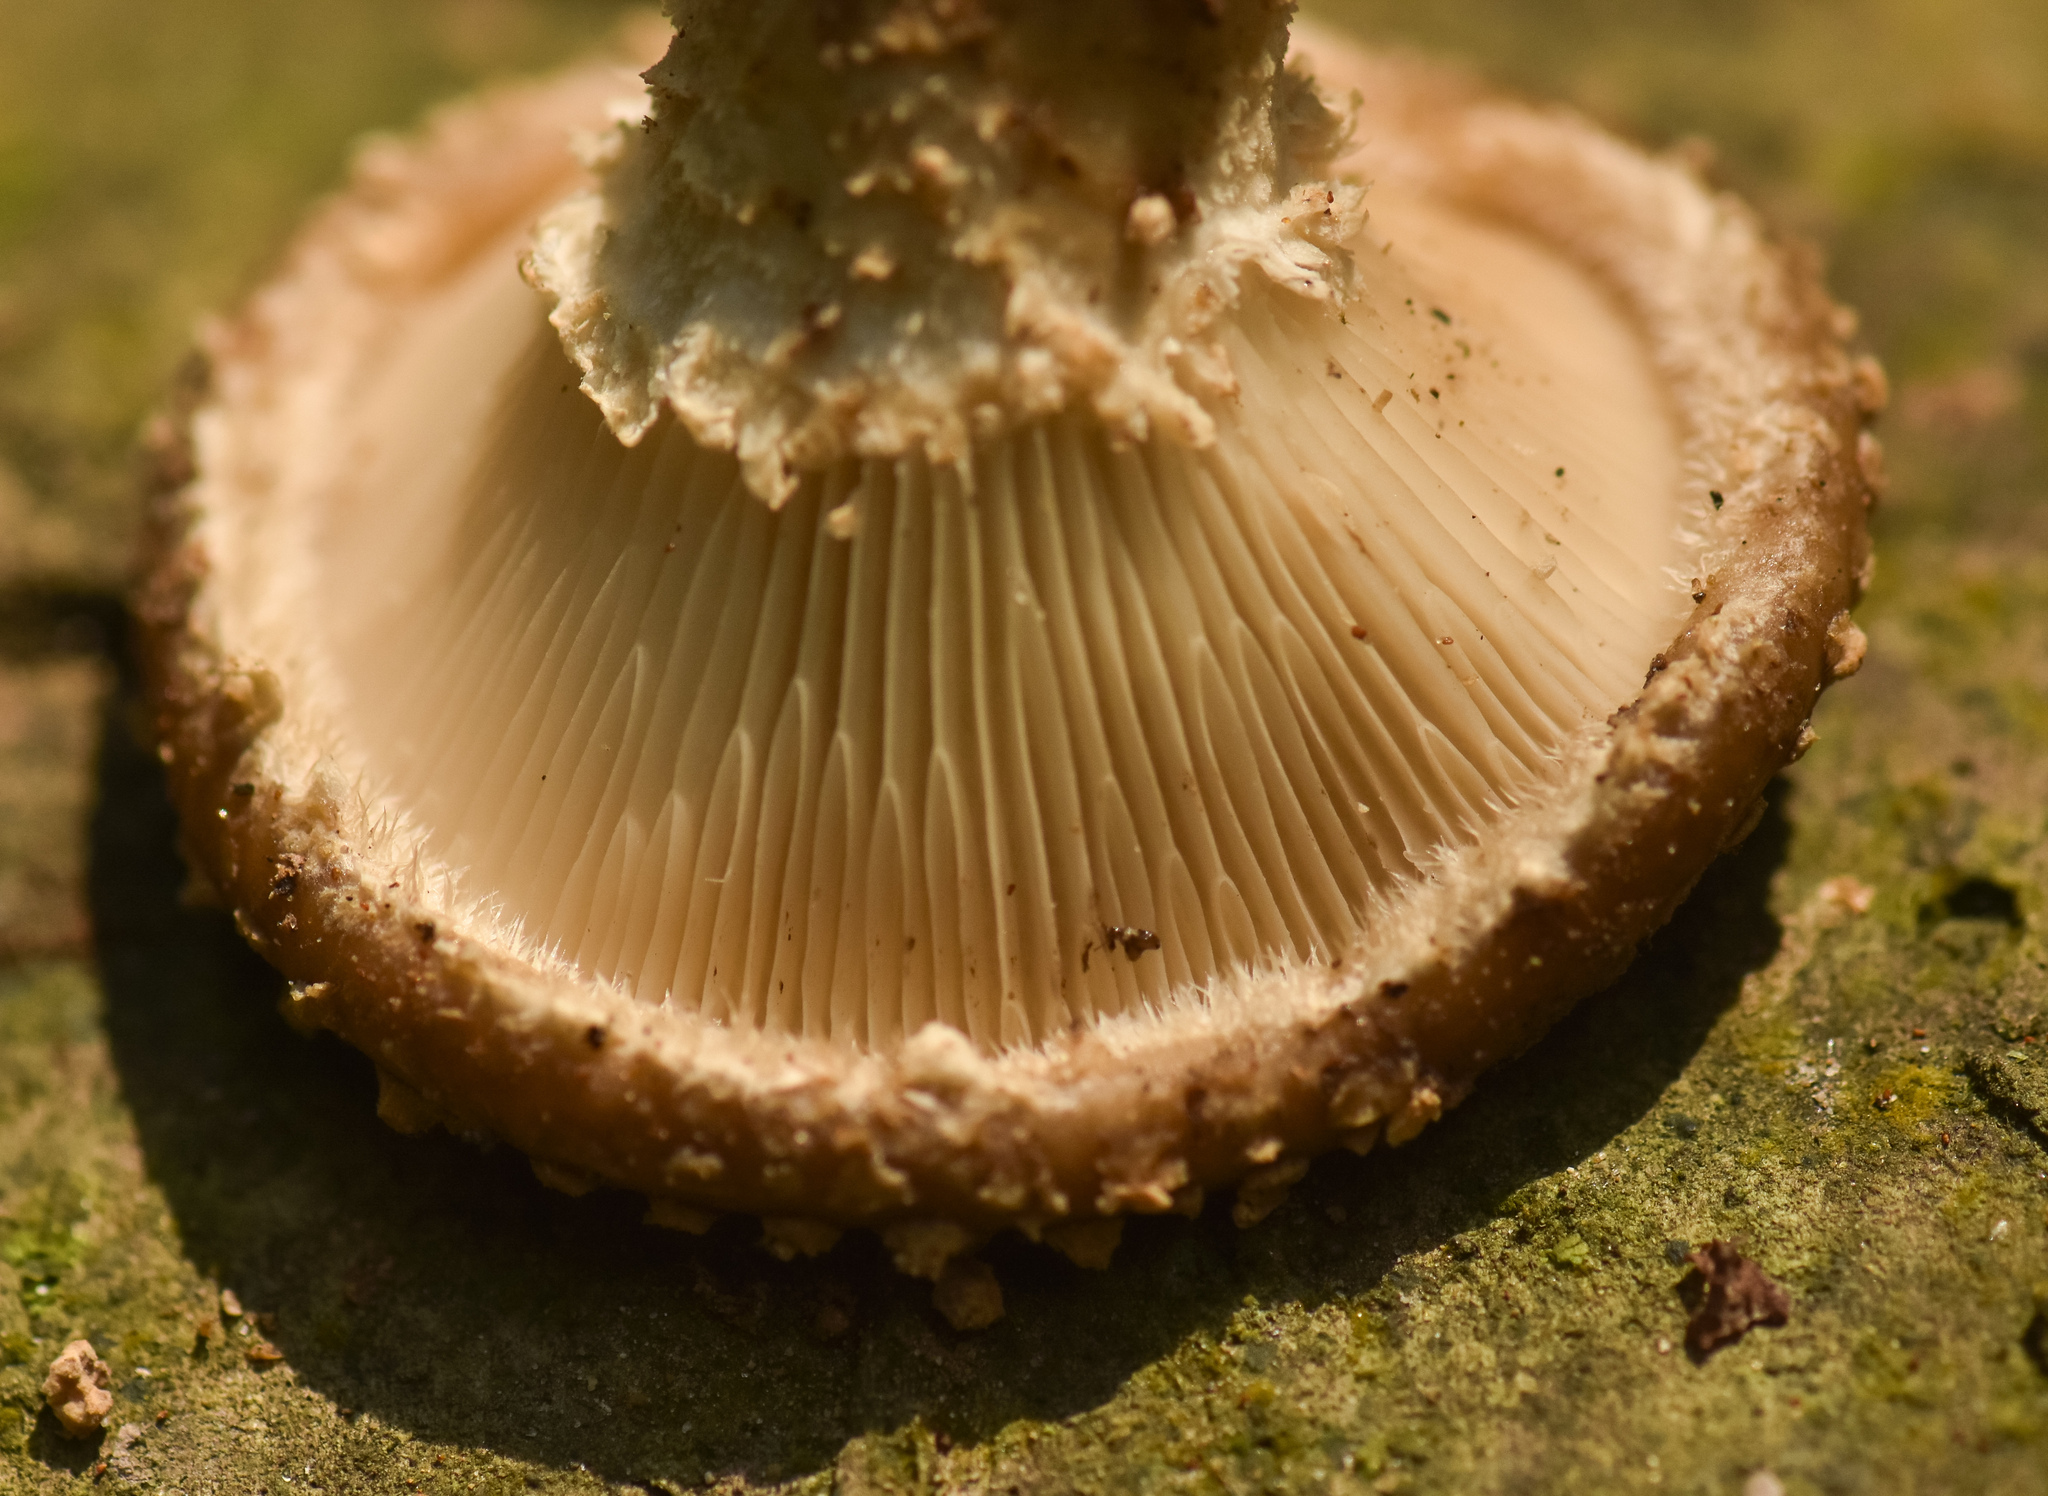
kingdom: Fungi
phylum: Basidiomycota
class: Agaricomycetes
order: Polyporales
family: Polyporaceae
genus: Lentinus
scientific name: Lentinus badius
